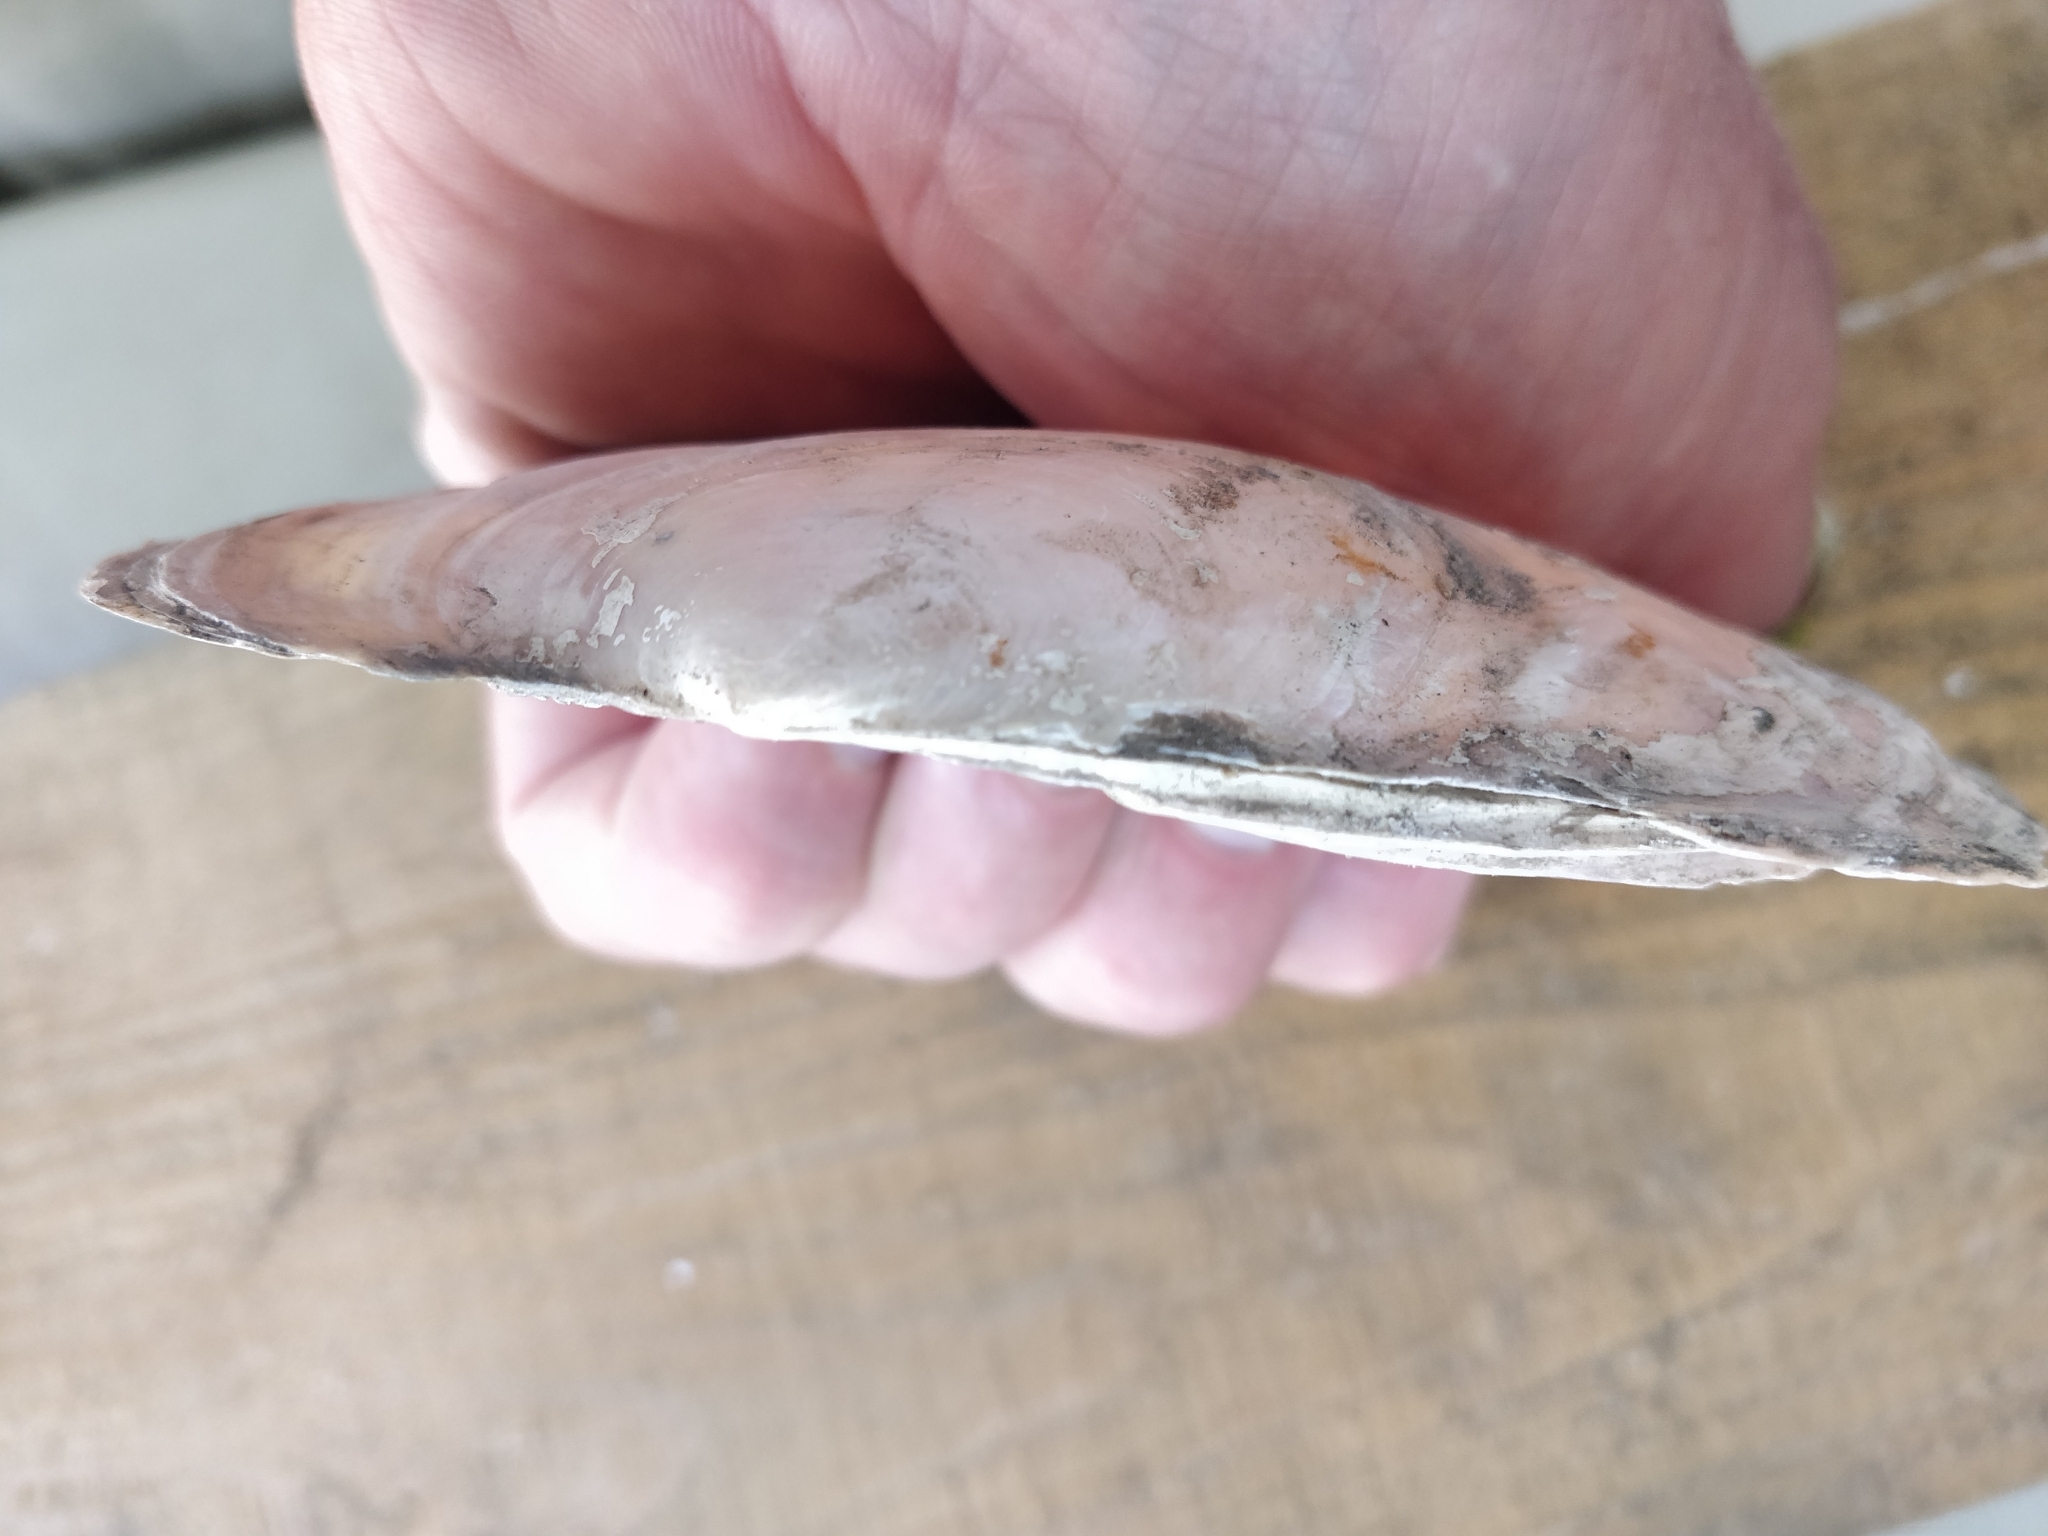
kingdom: Animalia
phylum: Mollusca
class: Bivalvia
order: Unionida
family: Unionidae
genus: Potamilus
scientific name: Potamilus ohiensis
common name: Pink papershell
